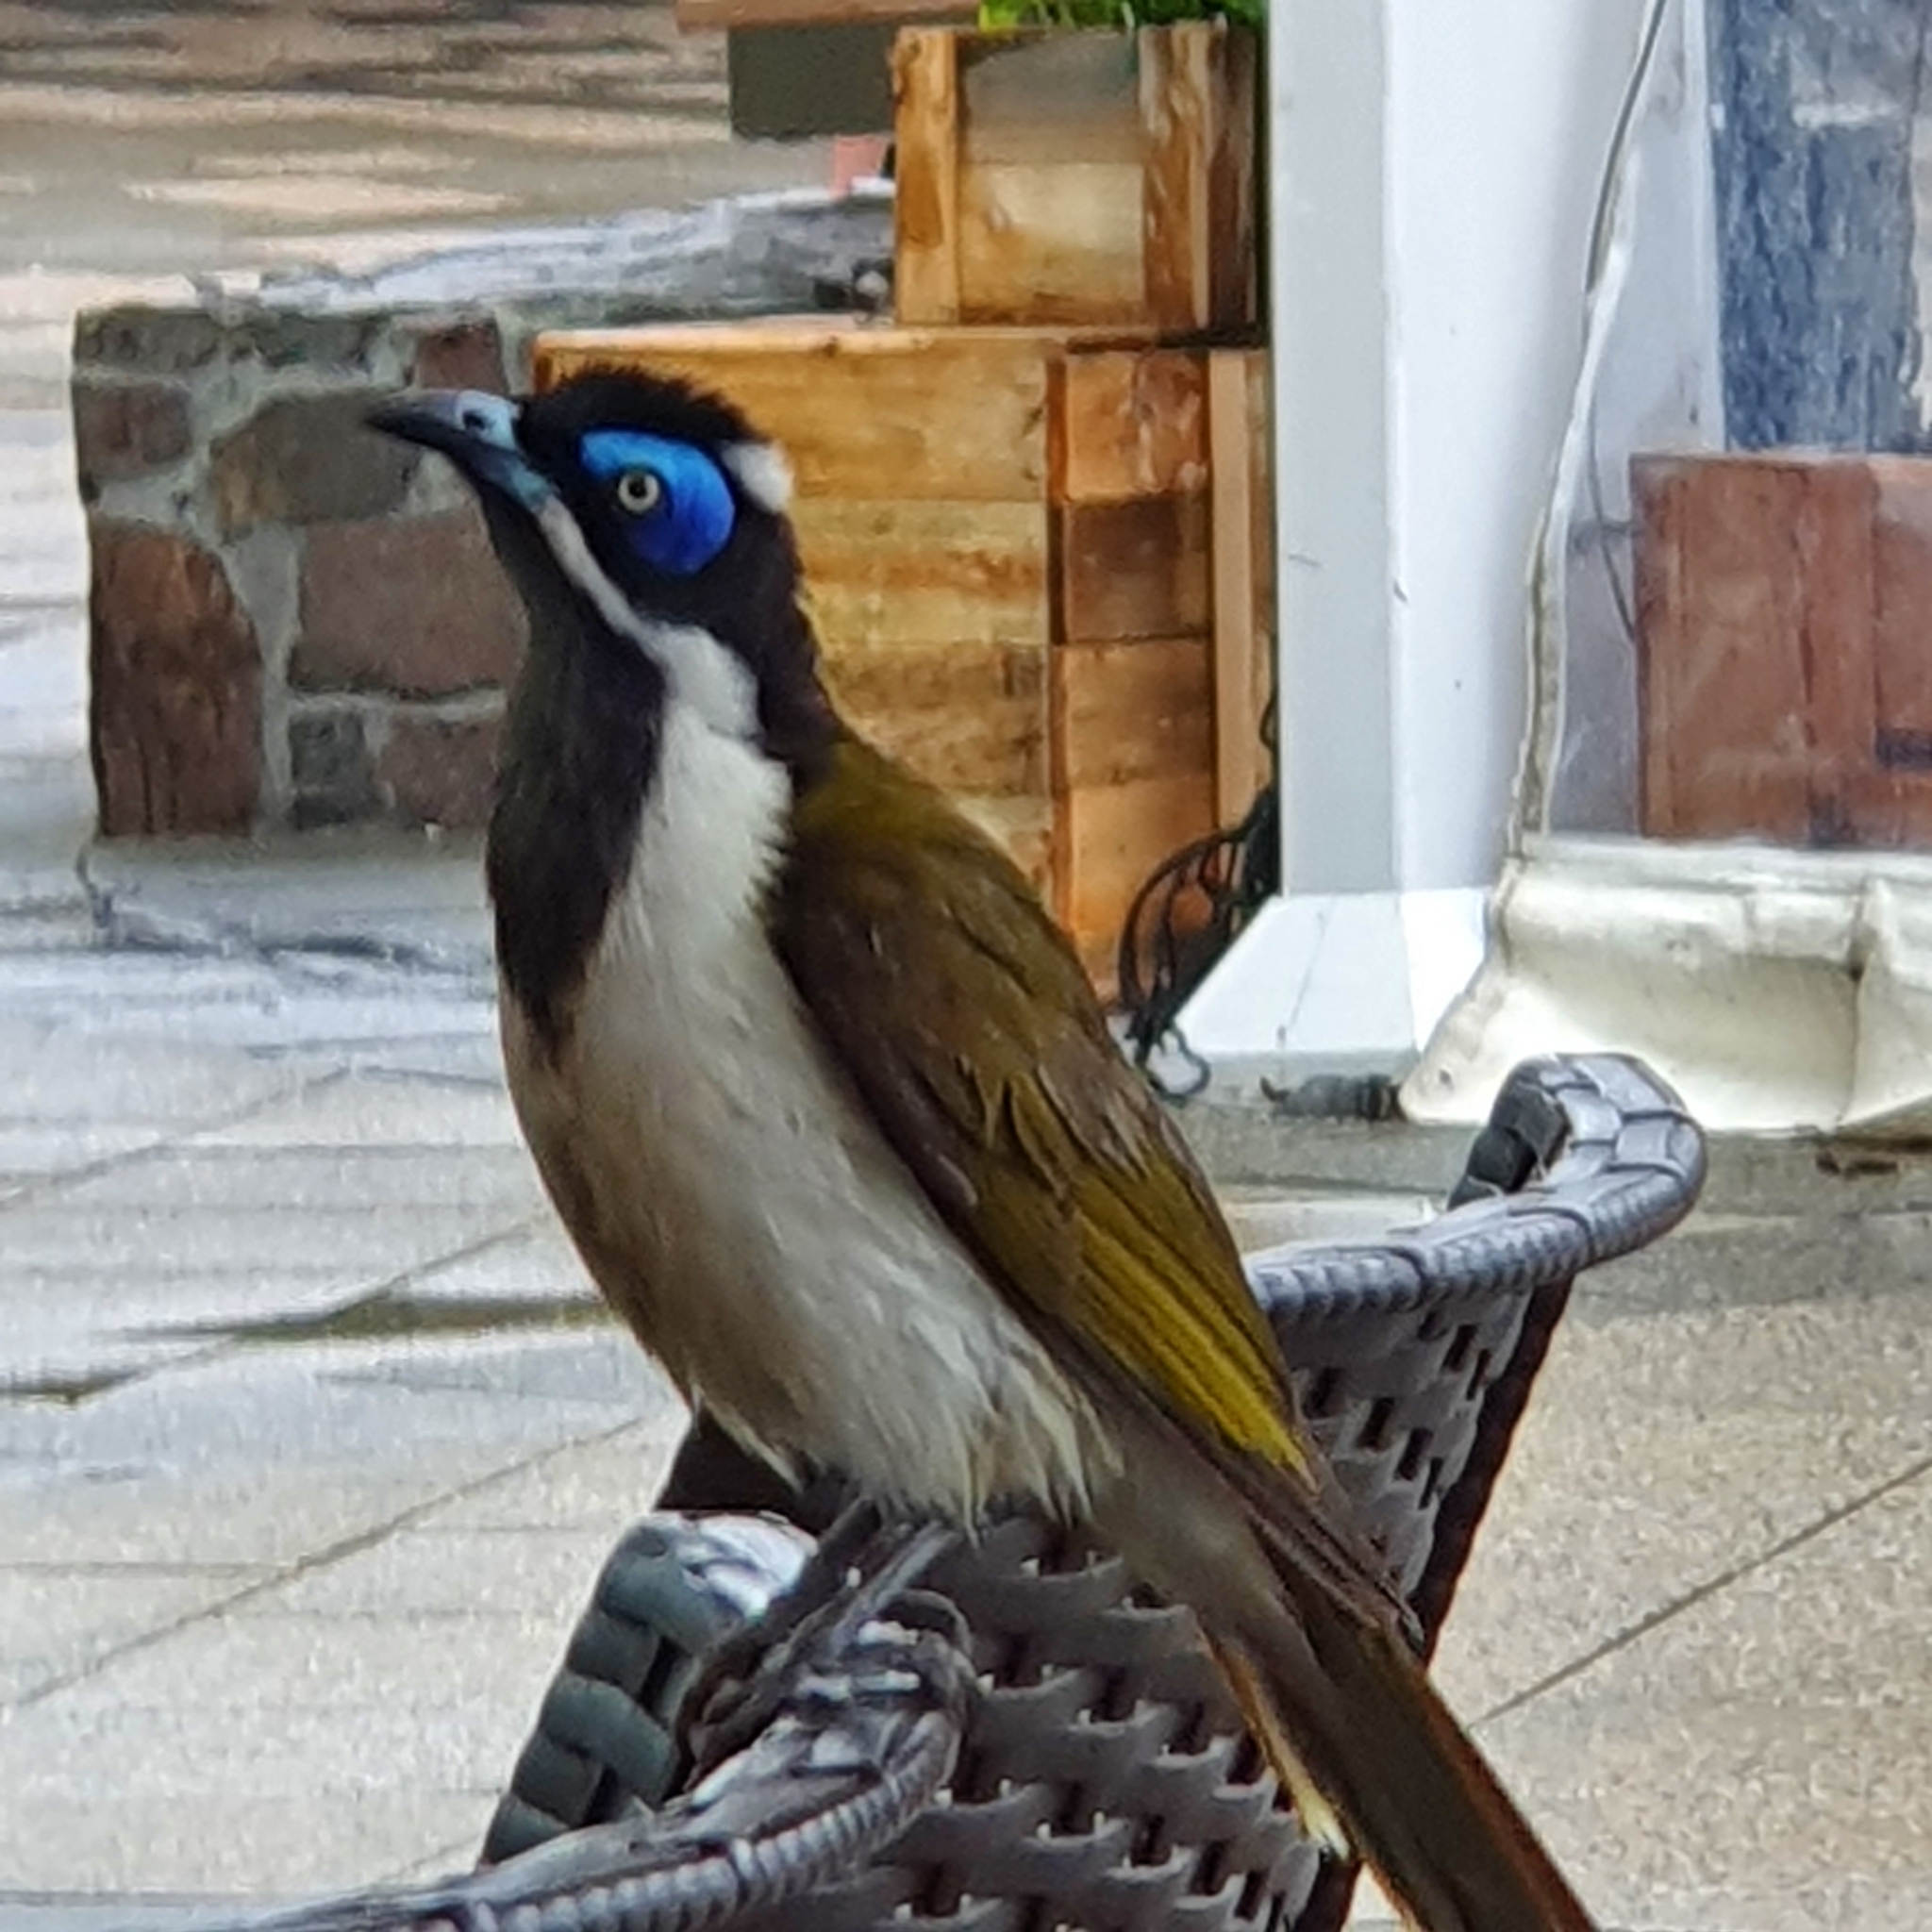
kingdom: Animalia
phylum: Chordata
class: Aves
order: Passeriformes
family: Meliphagidae
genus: Entomyzon
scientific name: Entomyzon cyanotis
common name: Blue-faced honeyeater
